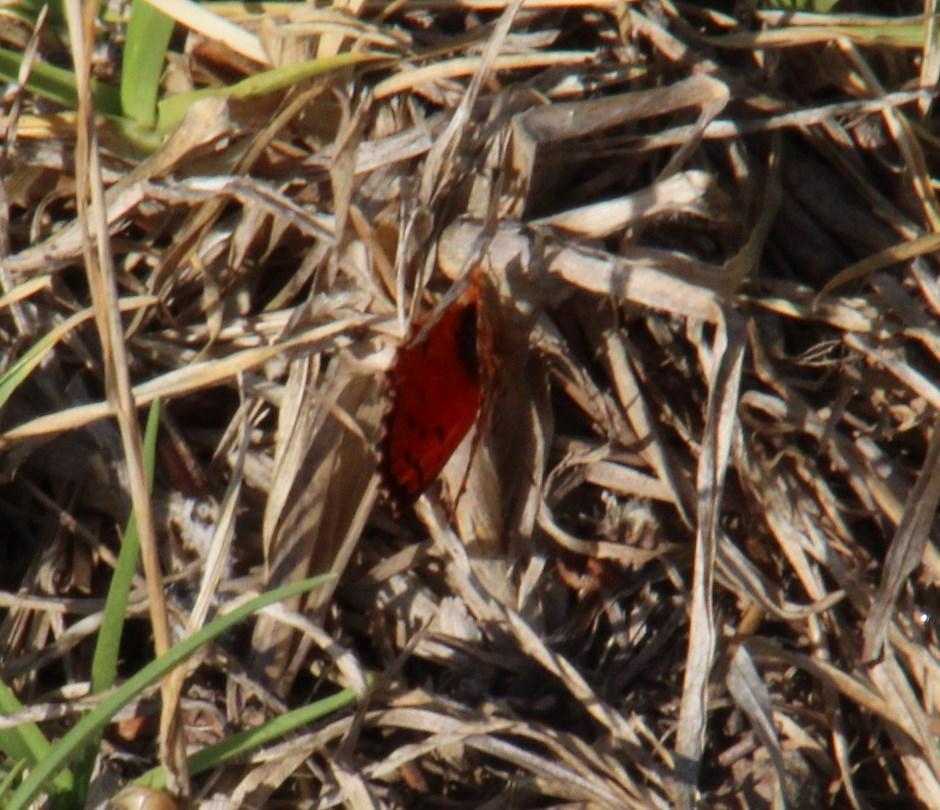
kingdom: Animalia
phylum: Arthropoda
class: Insecta
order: Lepidoptera
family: Lycaenidae
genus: Chrysoritis
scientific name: Chrysoritis
